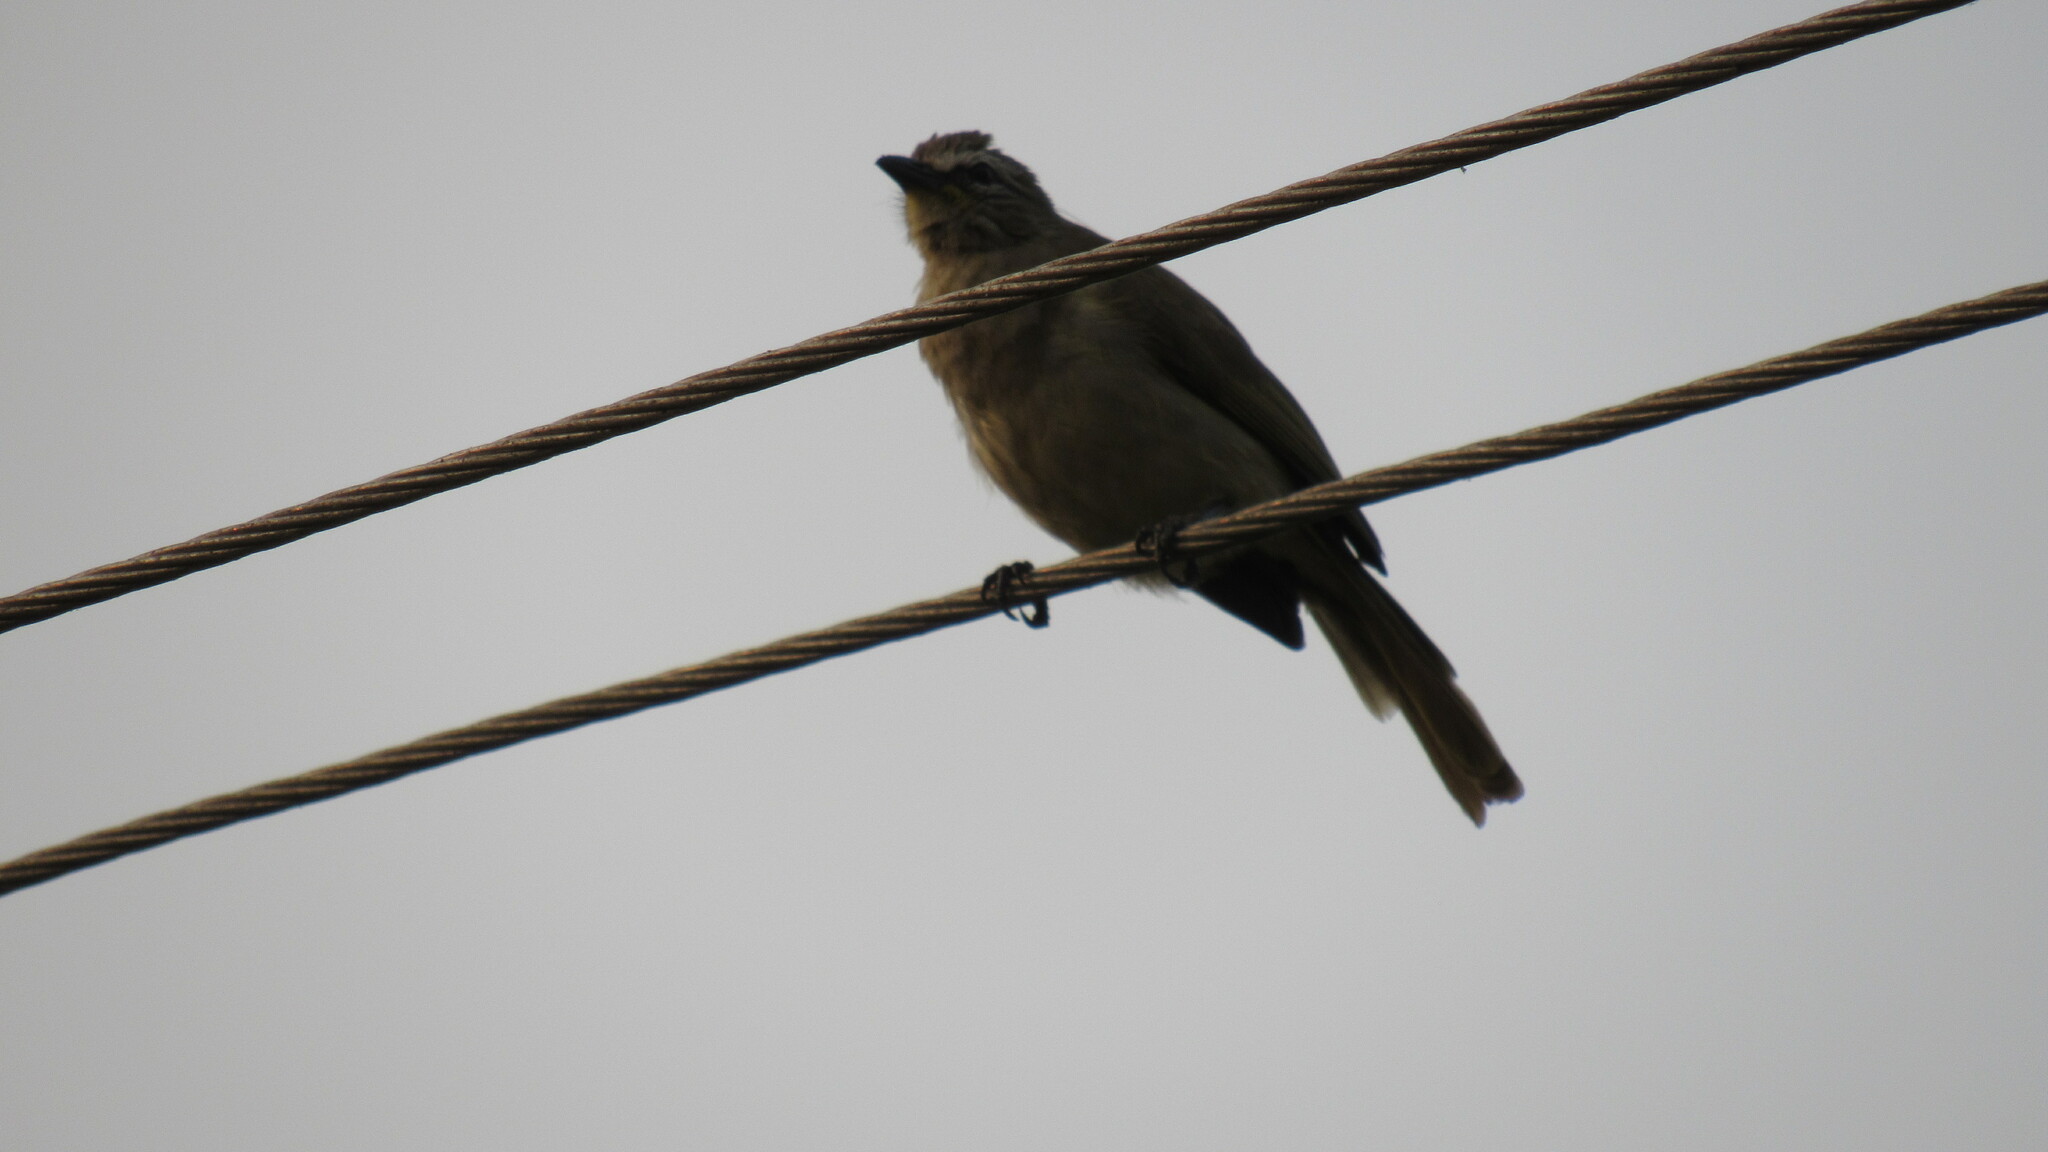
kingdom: Animalia
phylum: Chordata
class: Aves
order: Passeriformes
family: Pycnonotidae
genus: Pycnonotus
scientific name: Pycnonotus luteolus
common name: White-browed bulbul
